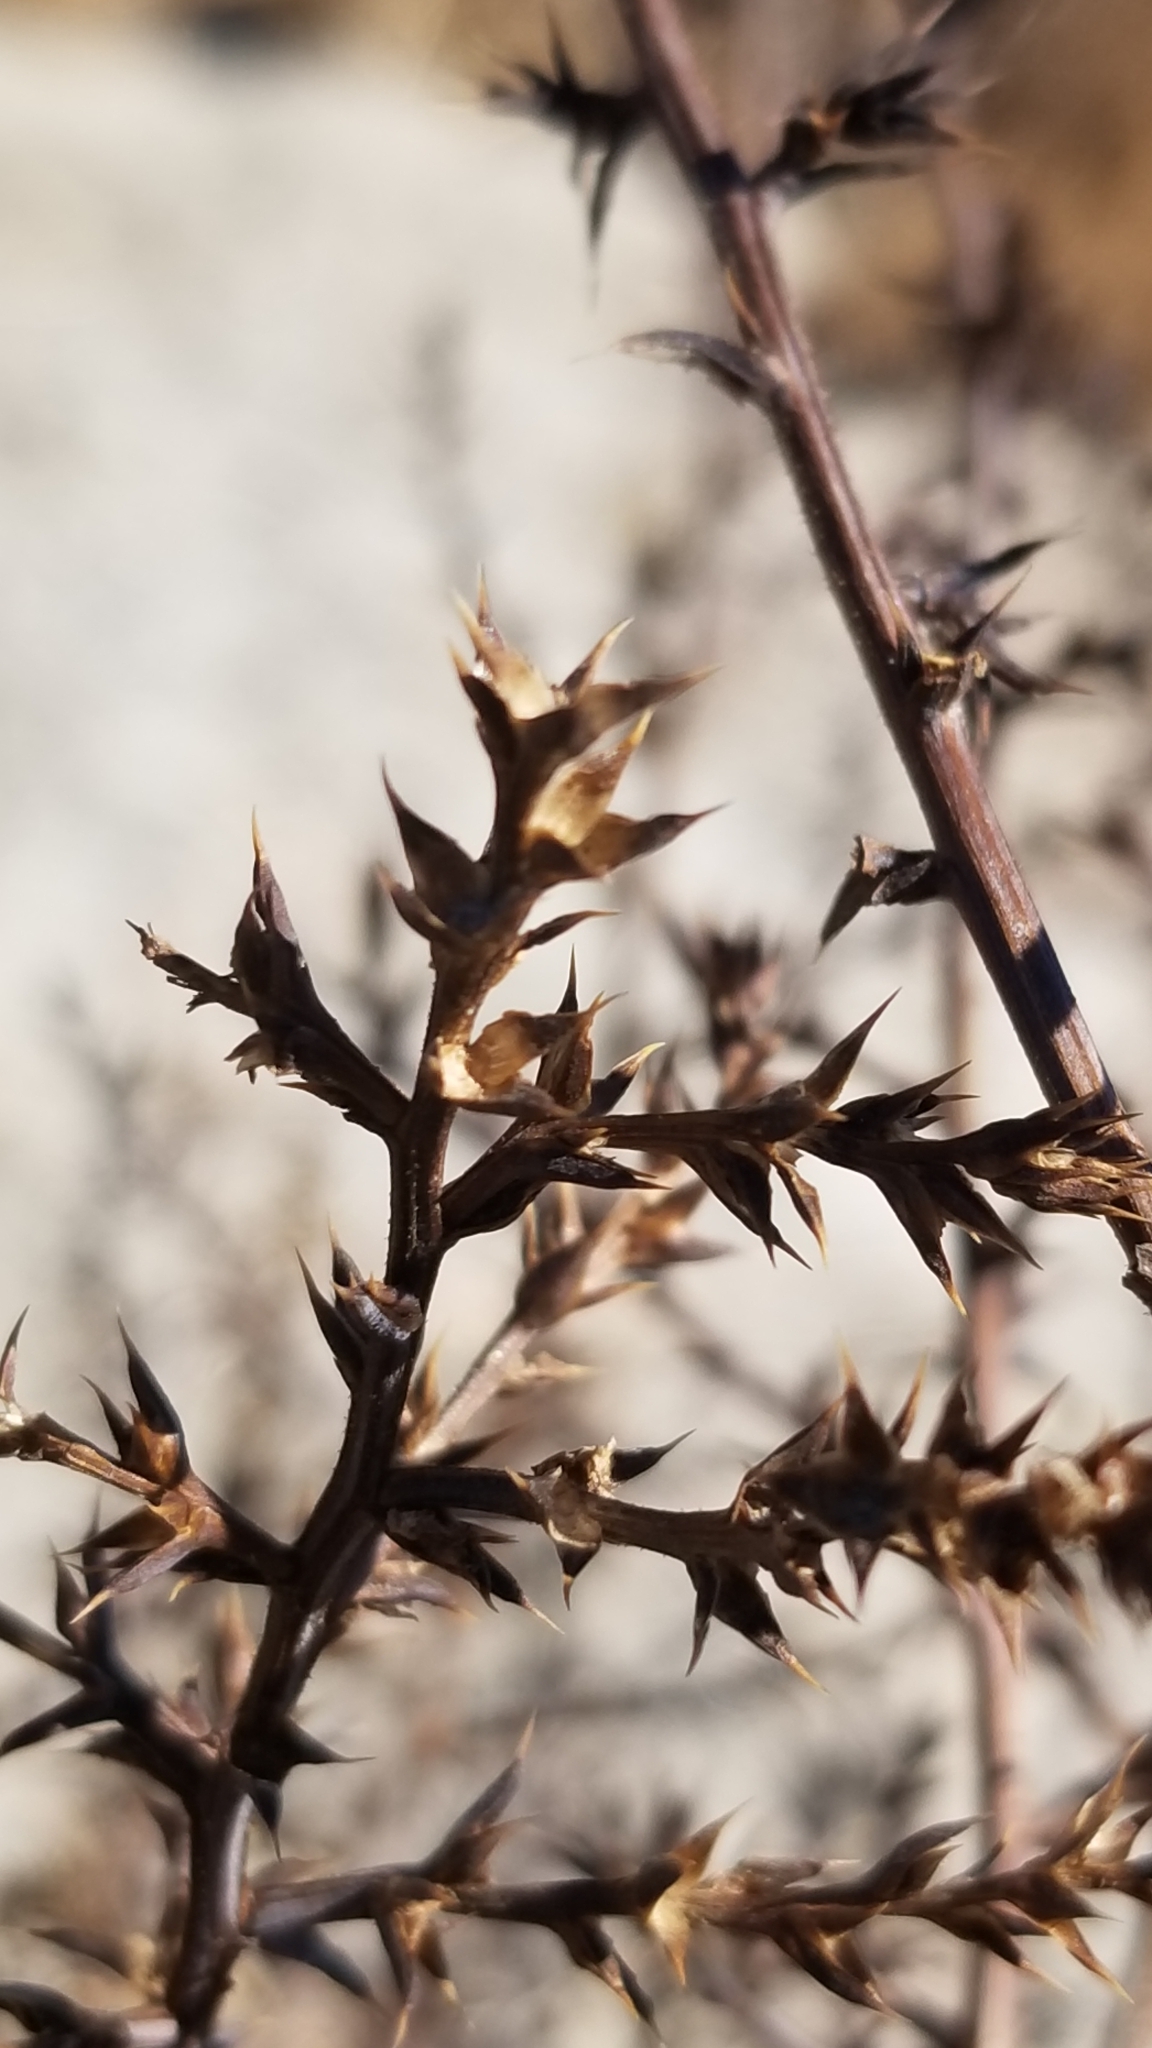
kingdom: Plantae
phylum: Tracheophyta
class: Magnoliopsida
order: Caryophyllales
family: Amaranthaceae
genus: Salsola
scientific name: Salsola tragus
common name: Prickly russian thistle
